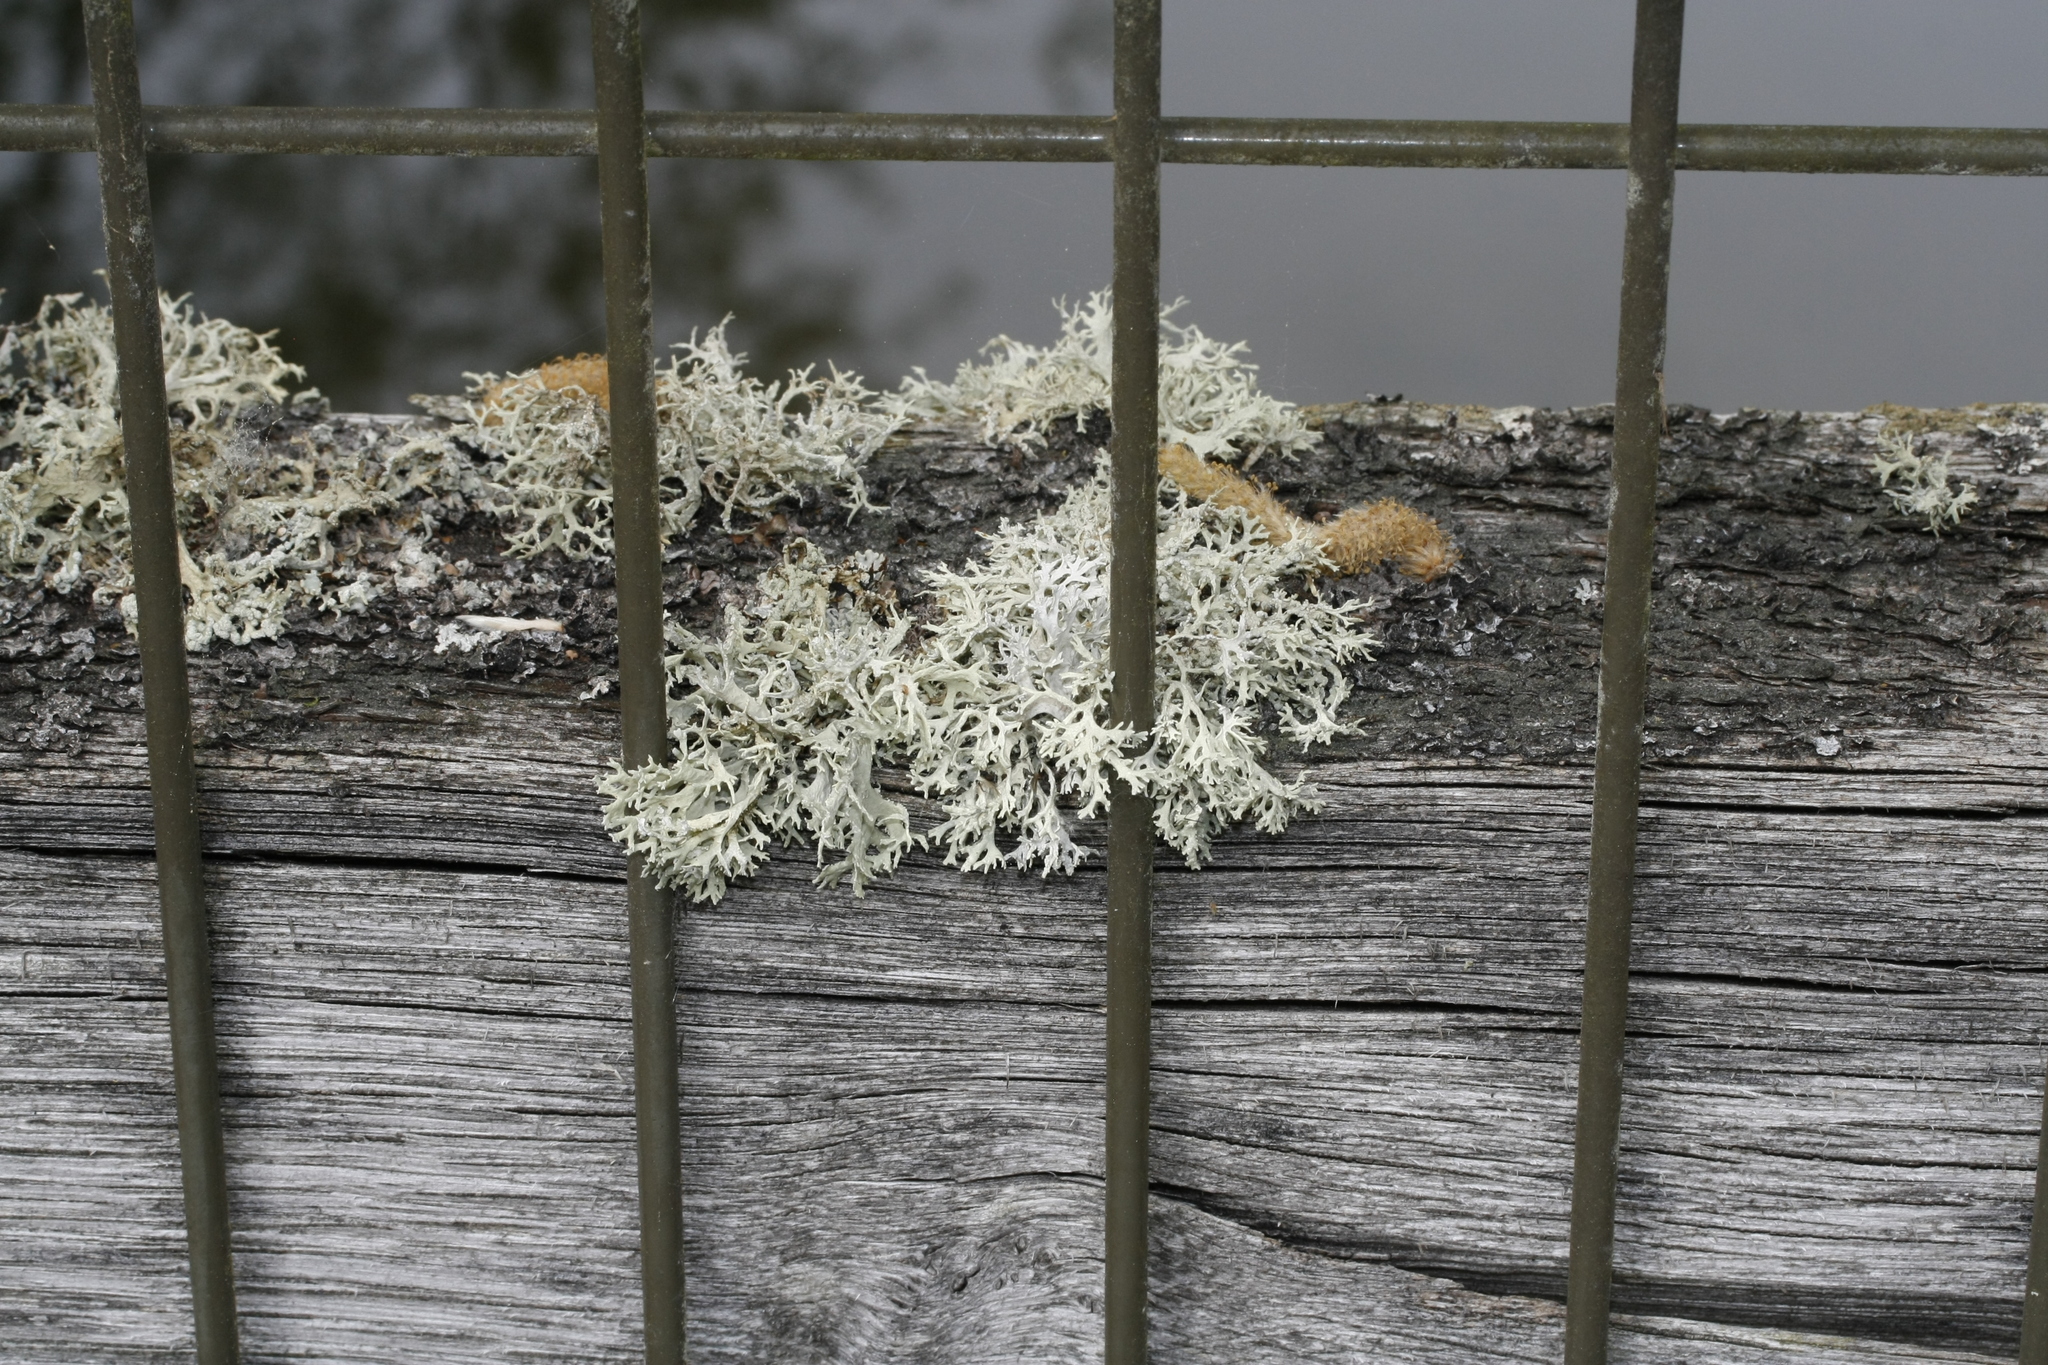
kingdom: Fungi
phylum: Ascomycota
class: Lecanoromycetes
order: Lecanorales
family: Parmeliaceae
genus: Evernia
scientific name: Evernia prunastri
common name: Oak moss
